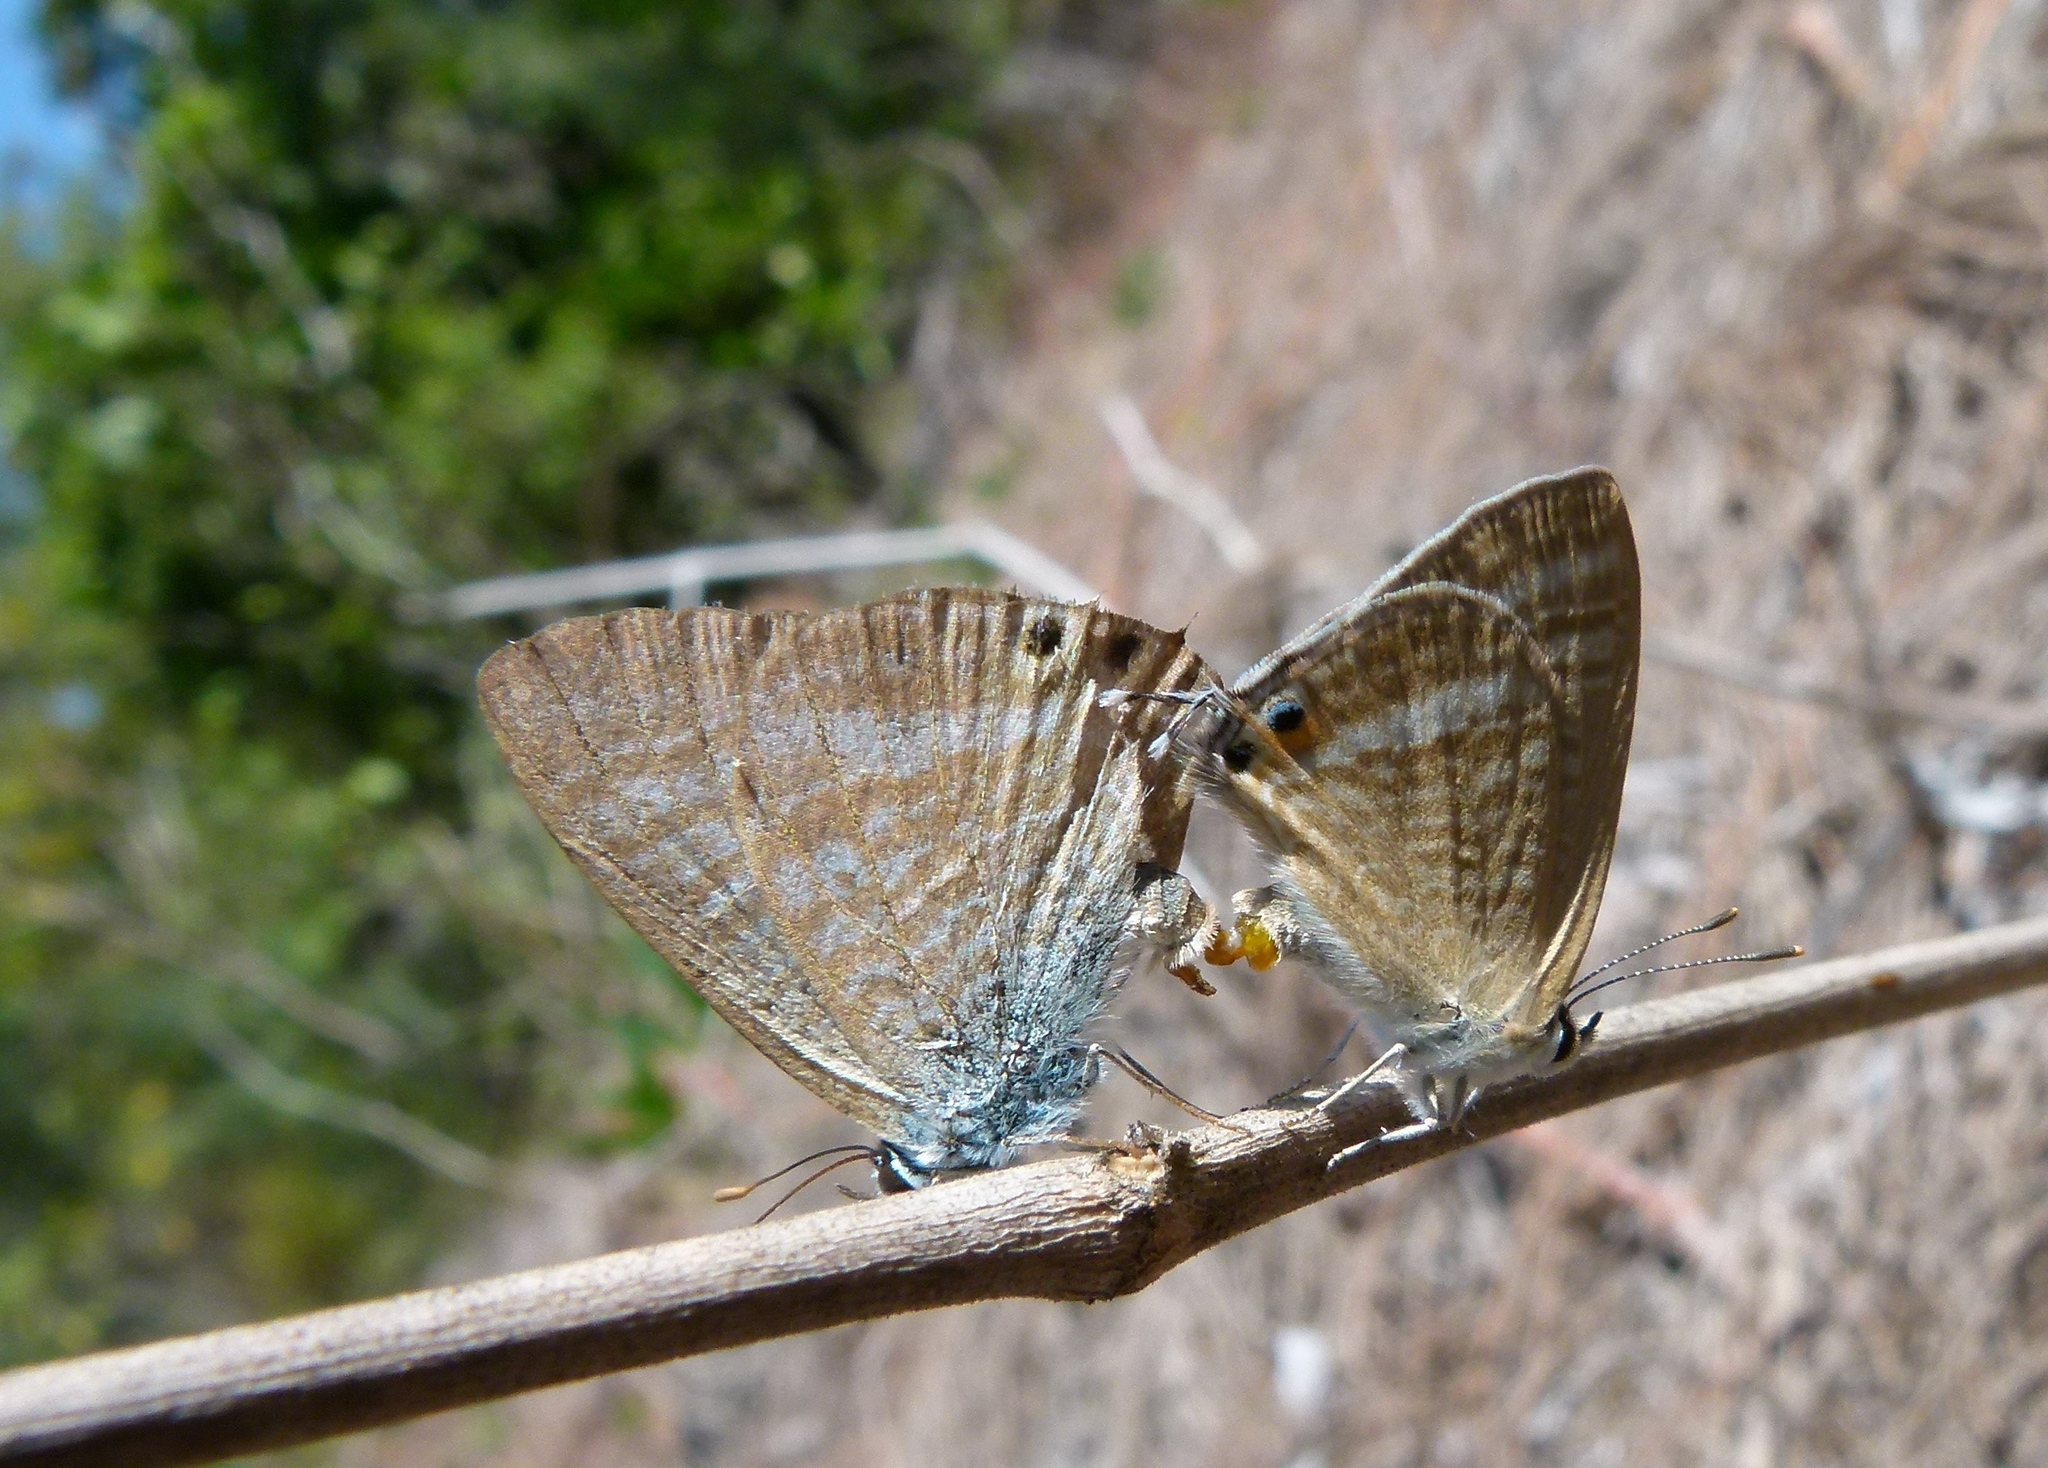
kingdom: Animalia
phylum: Arthropoda
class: Insecta
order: Lepidoptera
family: Lycaenidae
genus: Lampides
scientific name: Lampides boeticus
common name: Long-tailed blue
